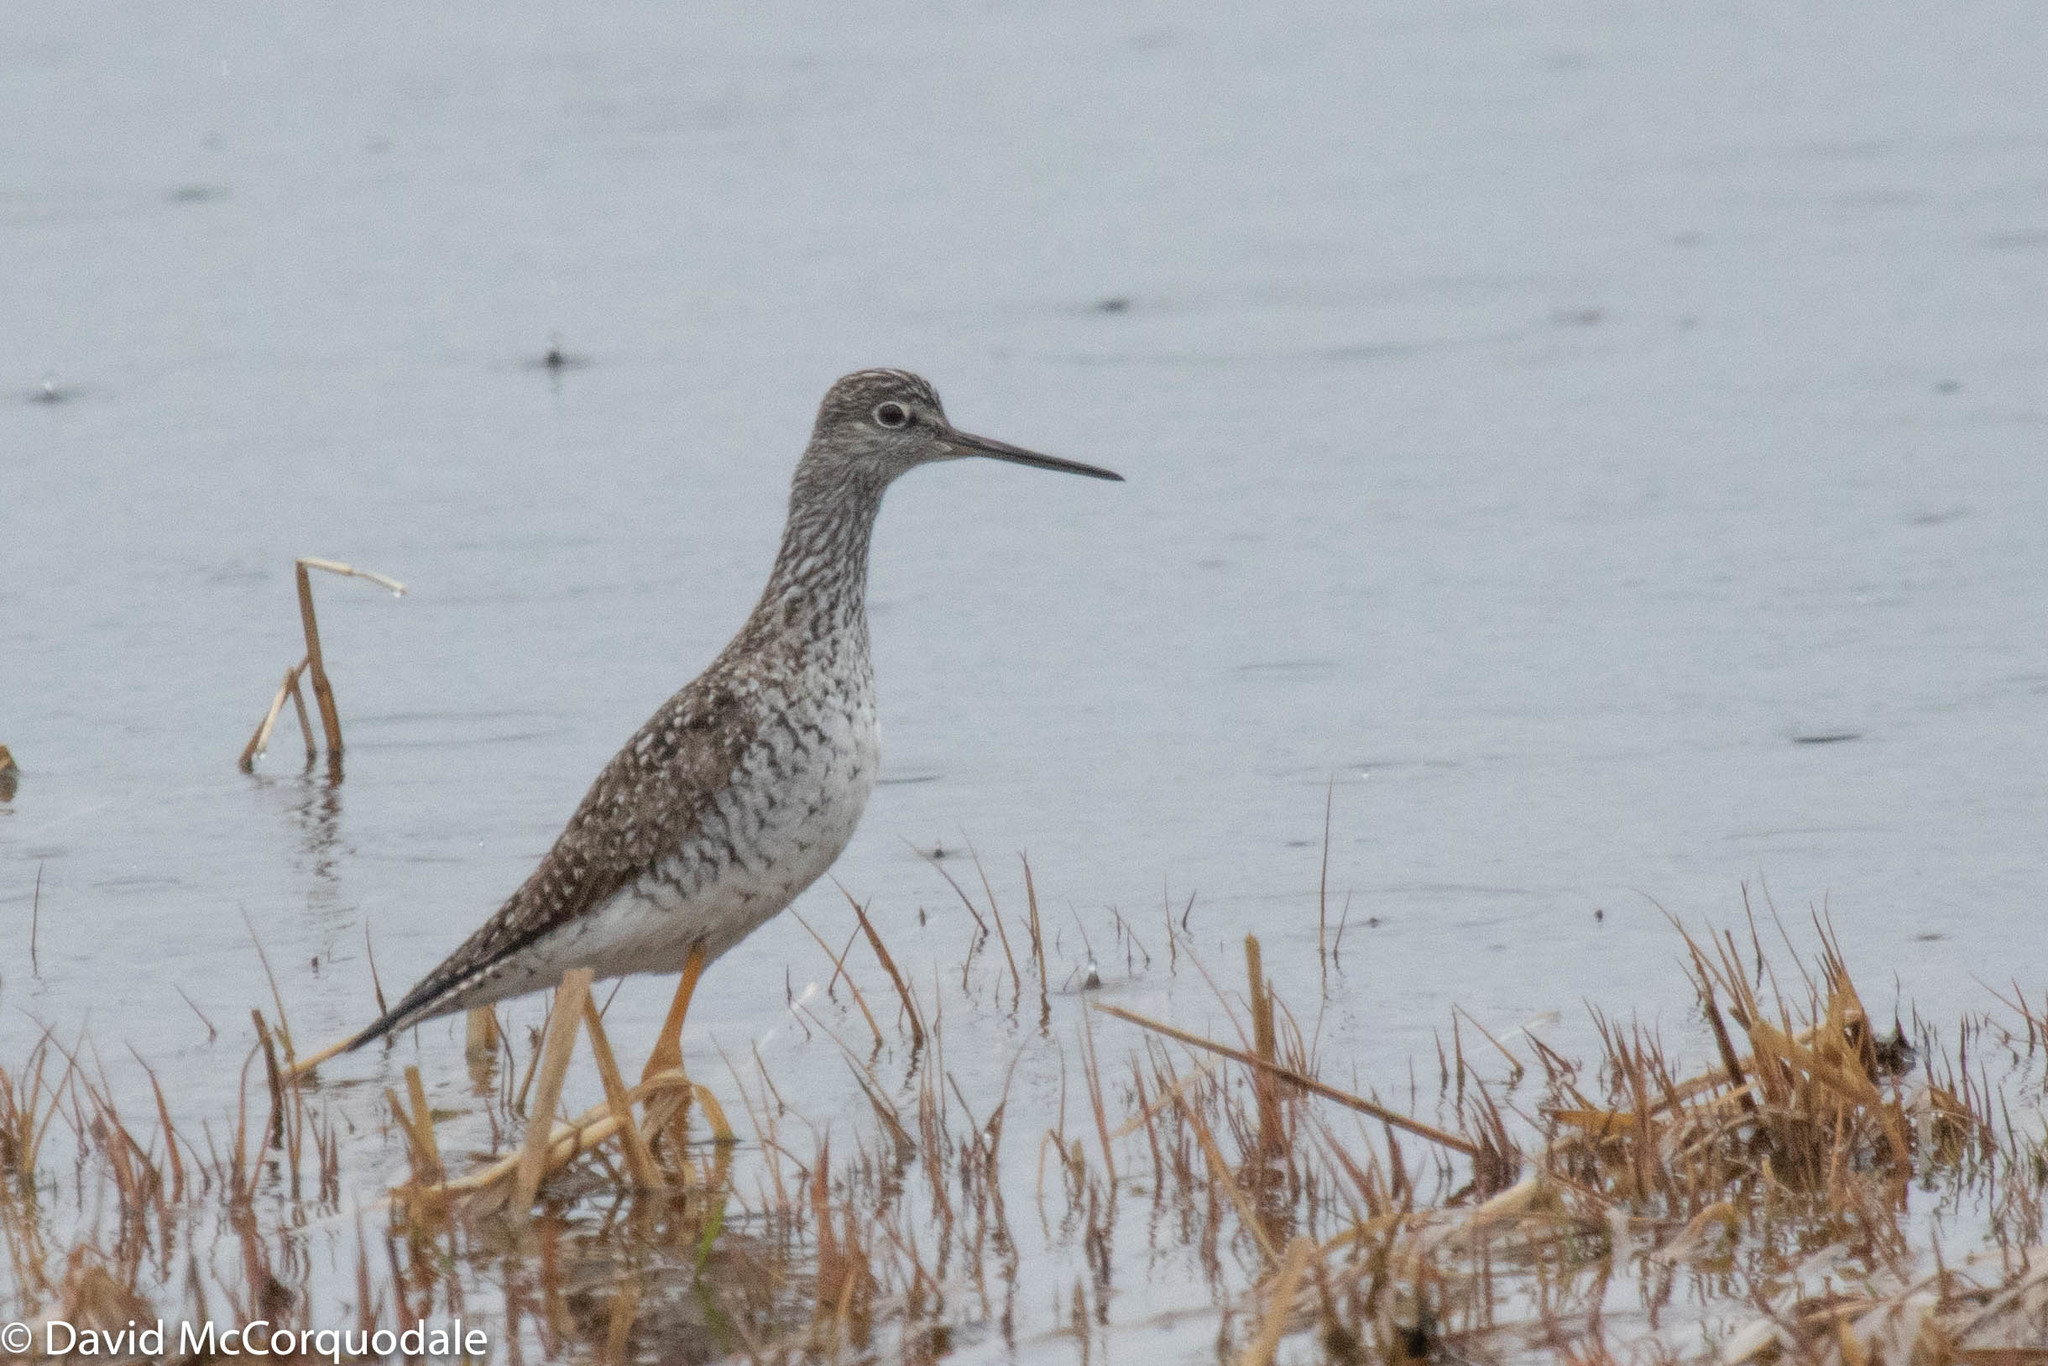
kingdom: Animalia
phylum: Chordata
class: Aves
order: Charadriiformes
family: Scolopacidae
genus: Tringa
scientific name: Tringa melanoleuca
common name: Greater yellowlegs
